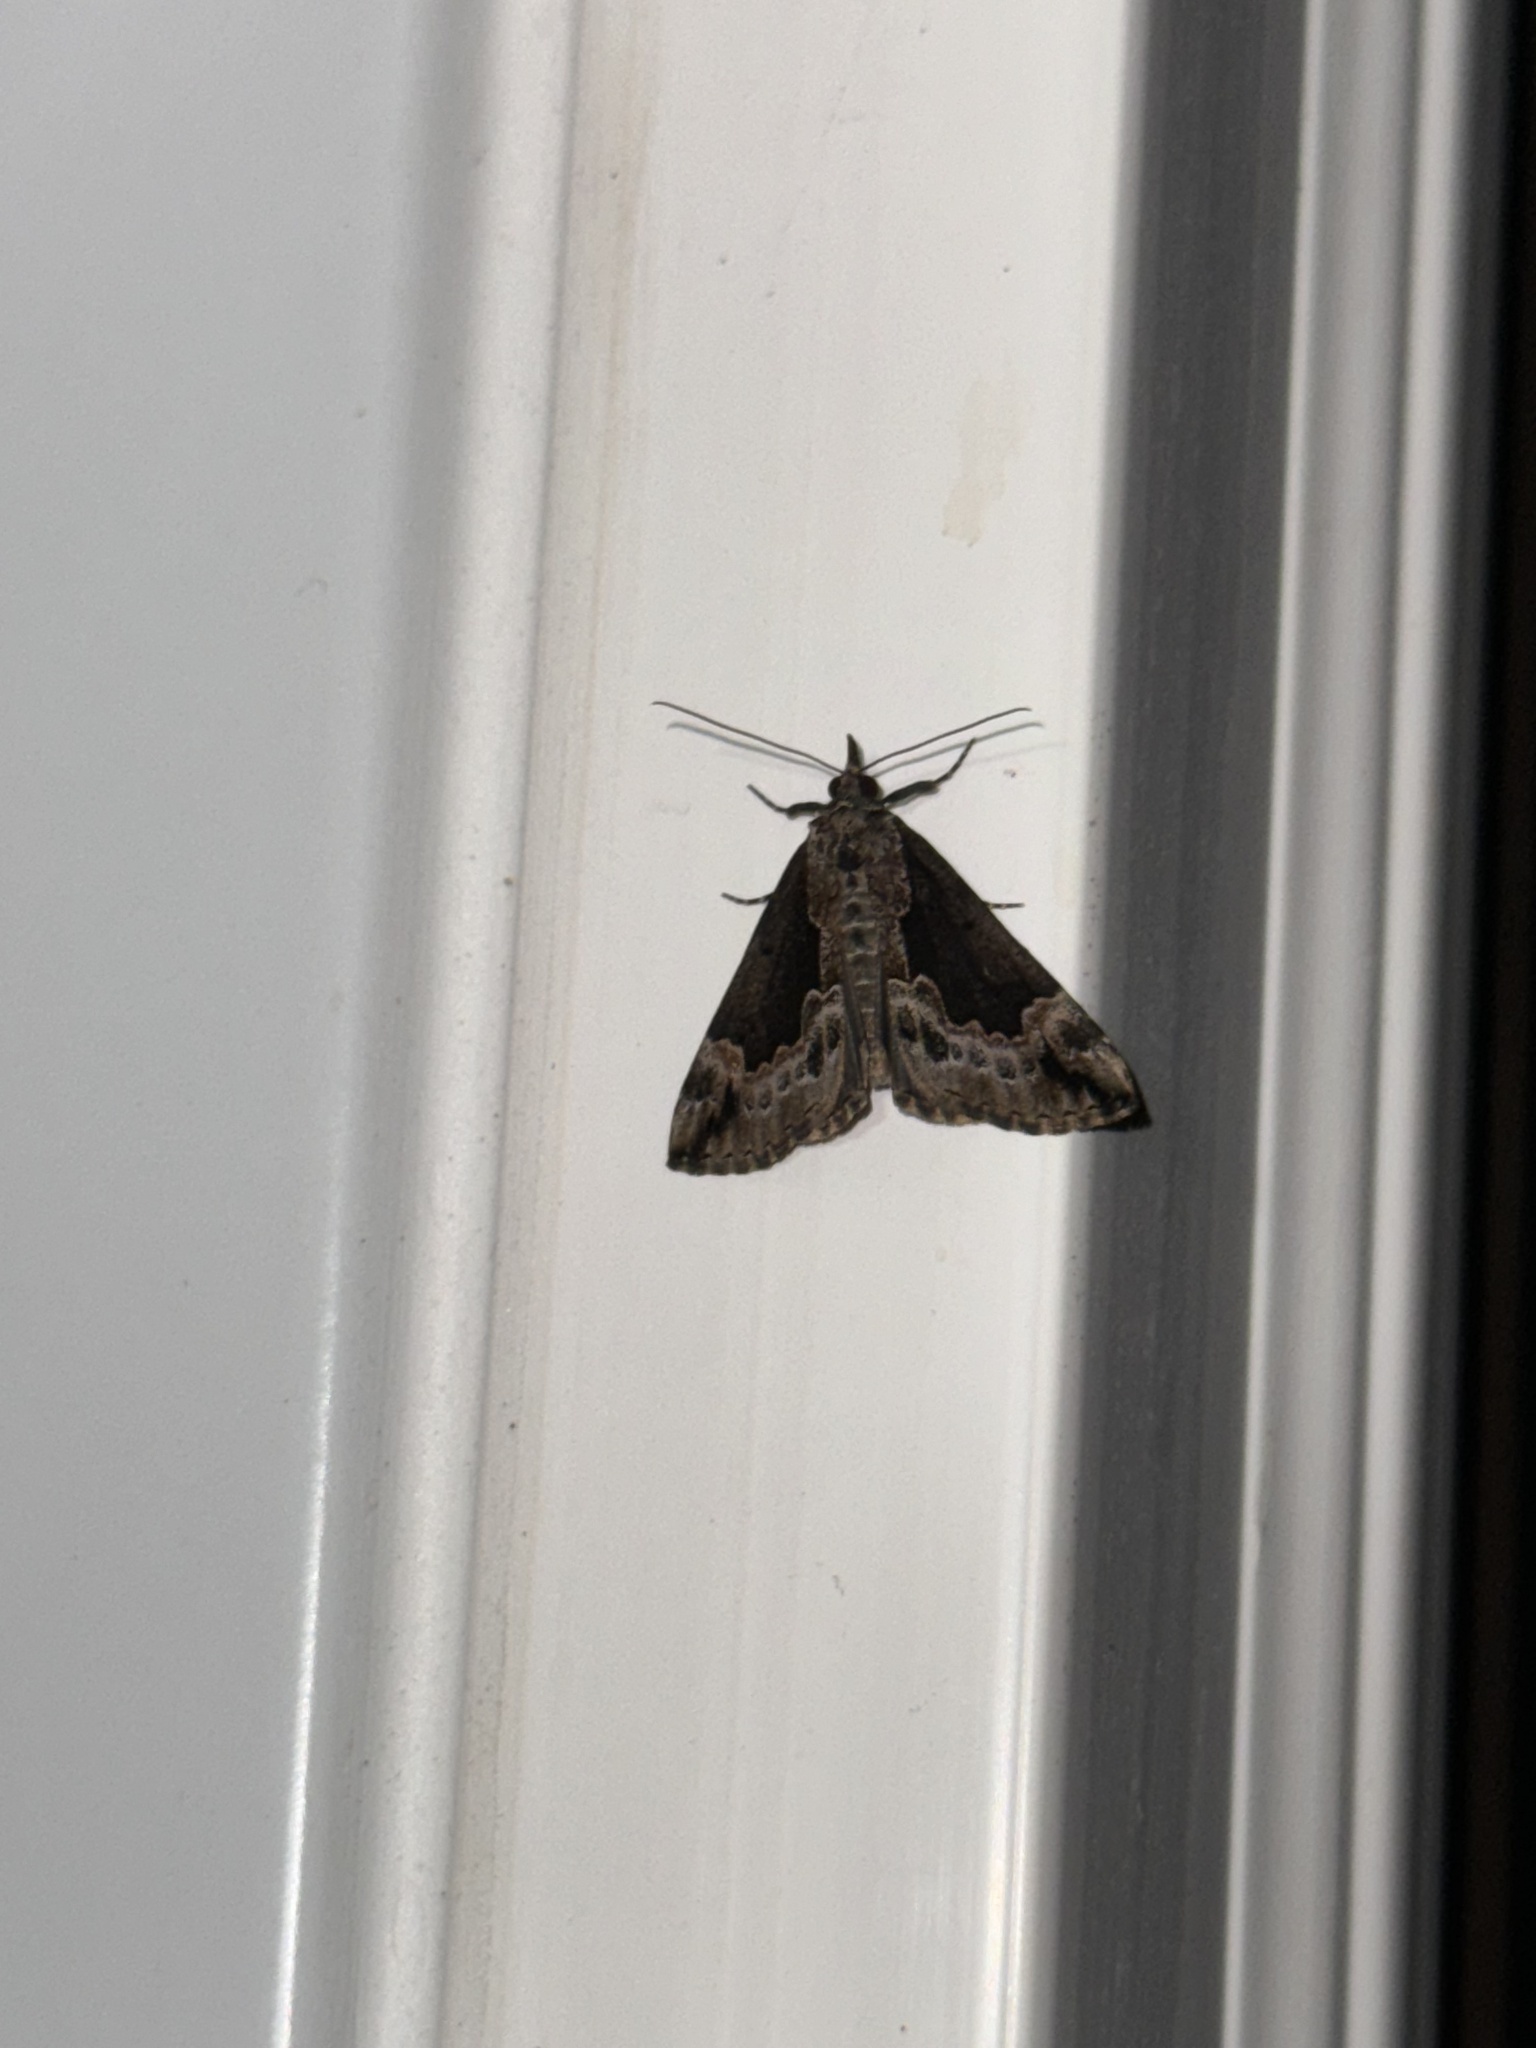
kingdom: Animalia
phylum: Arthropoda
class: Insecta
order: Lepidoptera
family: Erebidae
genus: Hypena
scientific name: Hypena baltimoralis
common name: Baltimore snout
